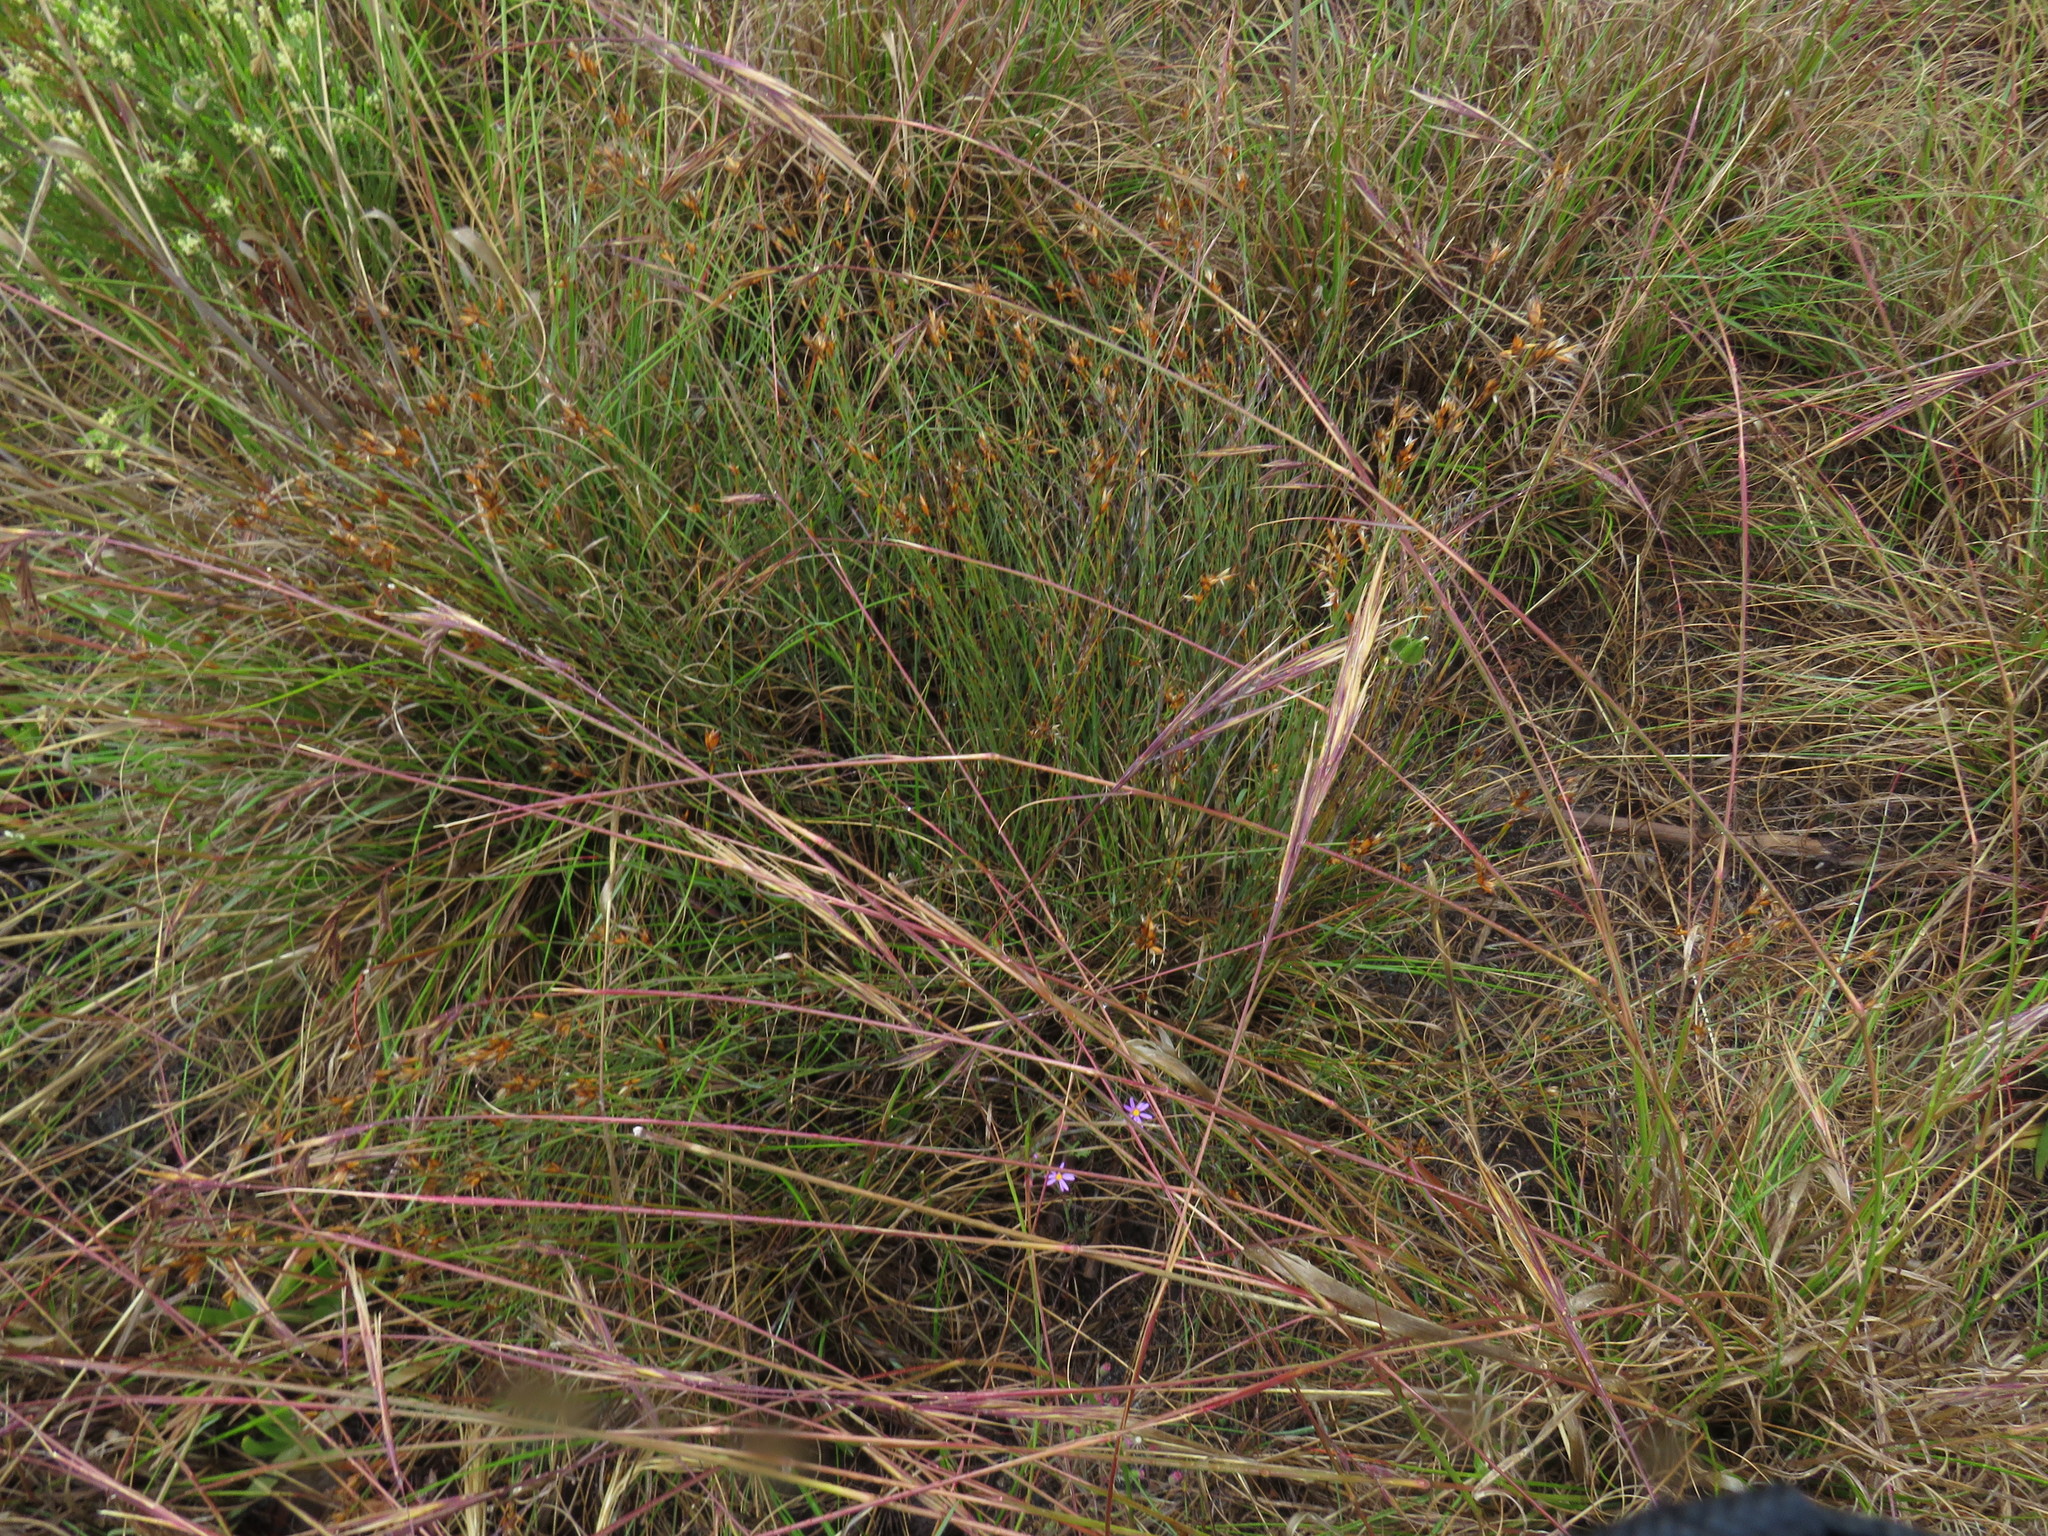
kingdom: Plantae
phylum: Tracheophyta
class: Liliopsida
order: Poales
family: Restionaceae
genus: Mastersiella
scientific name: Mastersiella digitata
